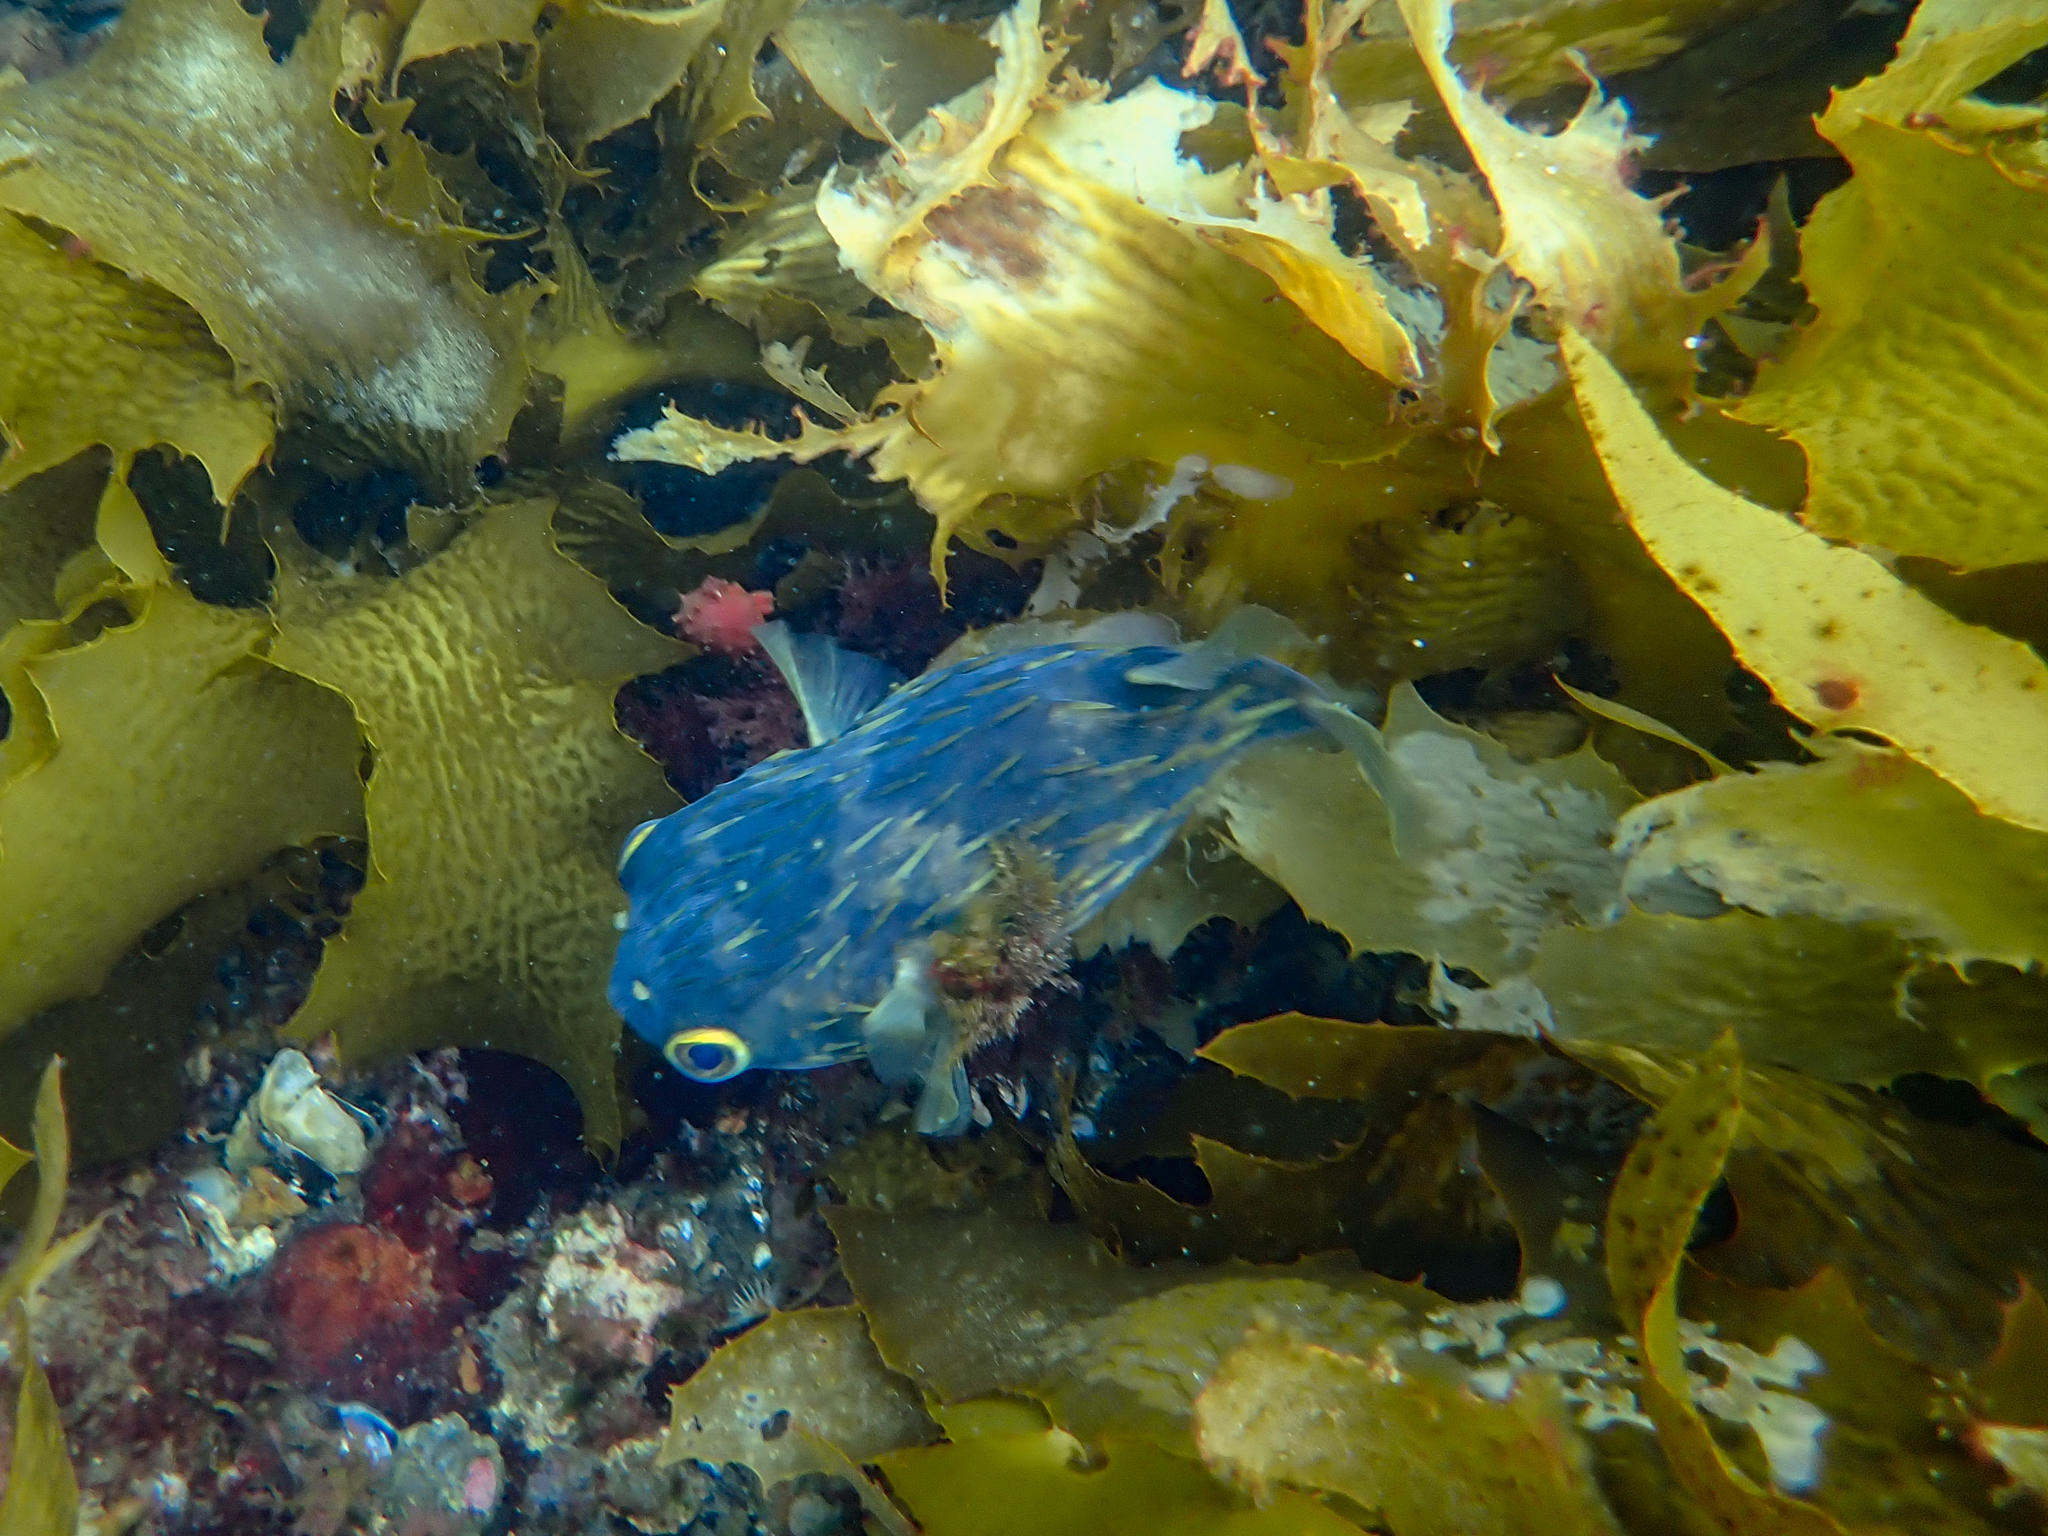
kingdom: Animalia
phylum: Chordata
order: Tetraodontiformes
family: Diodontidae
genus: Diodon
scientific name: Diodon nicthemerus
